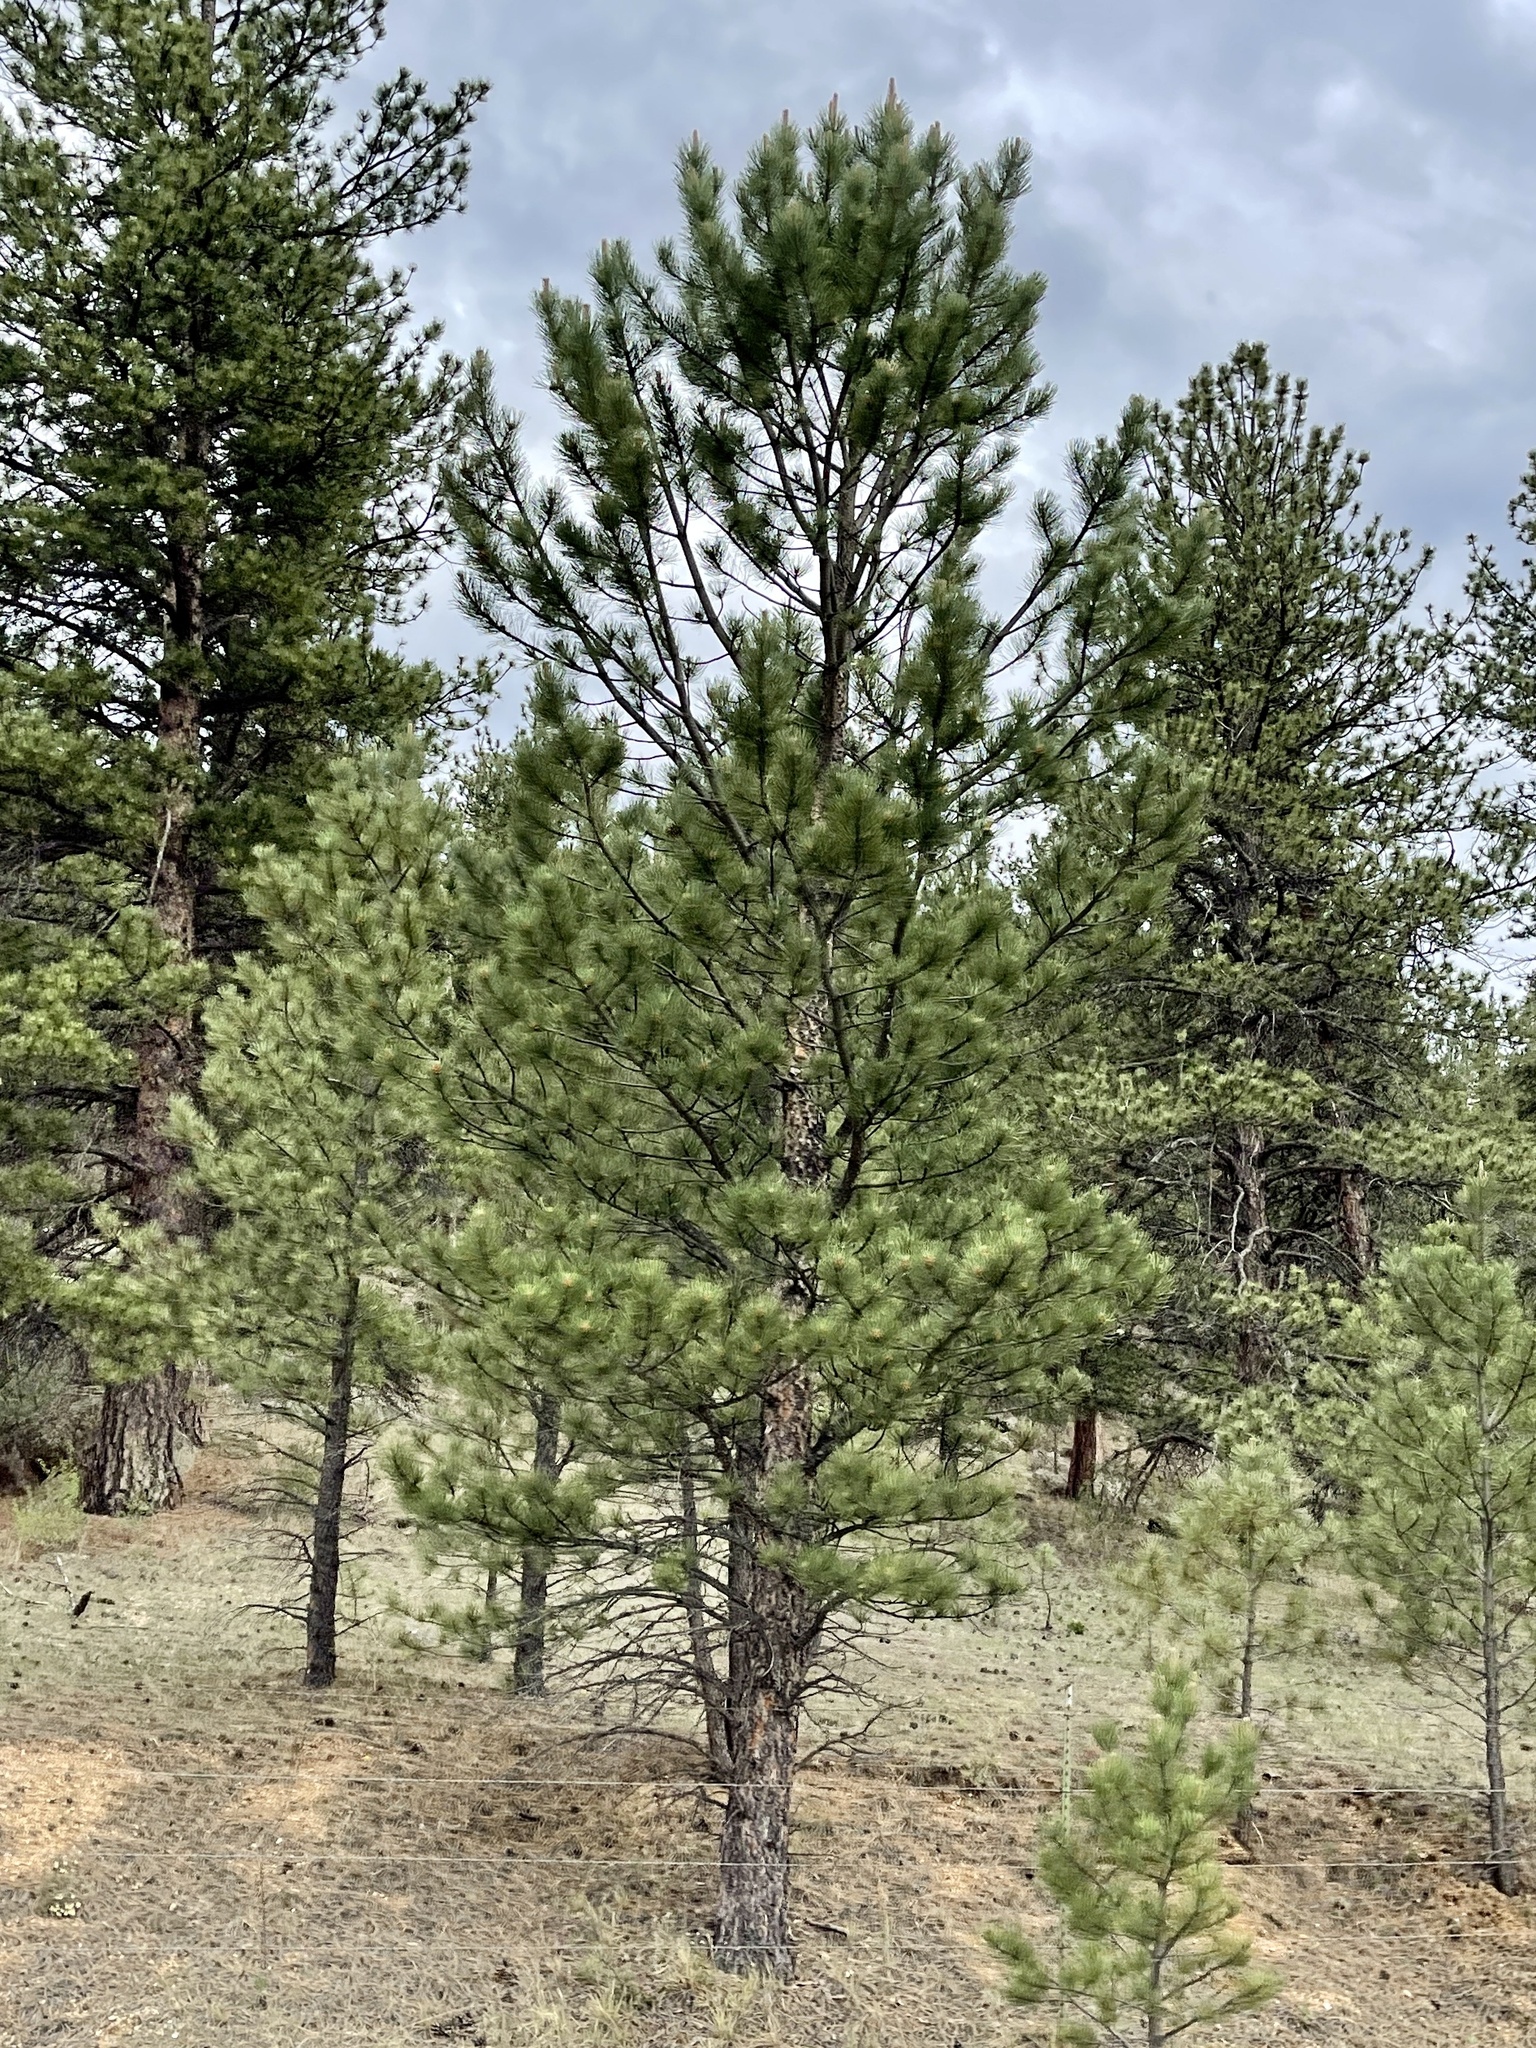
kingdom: Plantae
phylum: Tracheophyta
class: Pinopsida
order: Pinales
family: Pinaceae
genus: Pinus
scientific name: Pinus ponderosa
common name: Western yellow-pine
